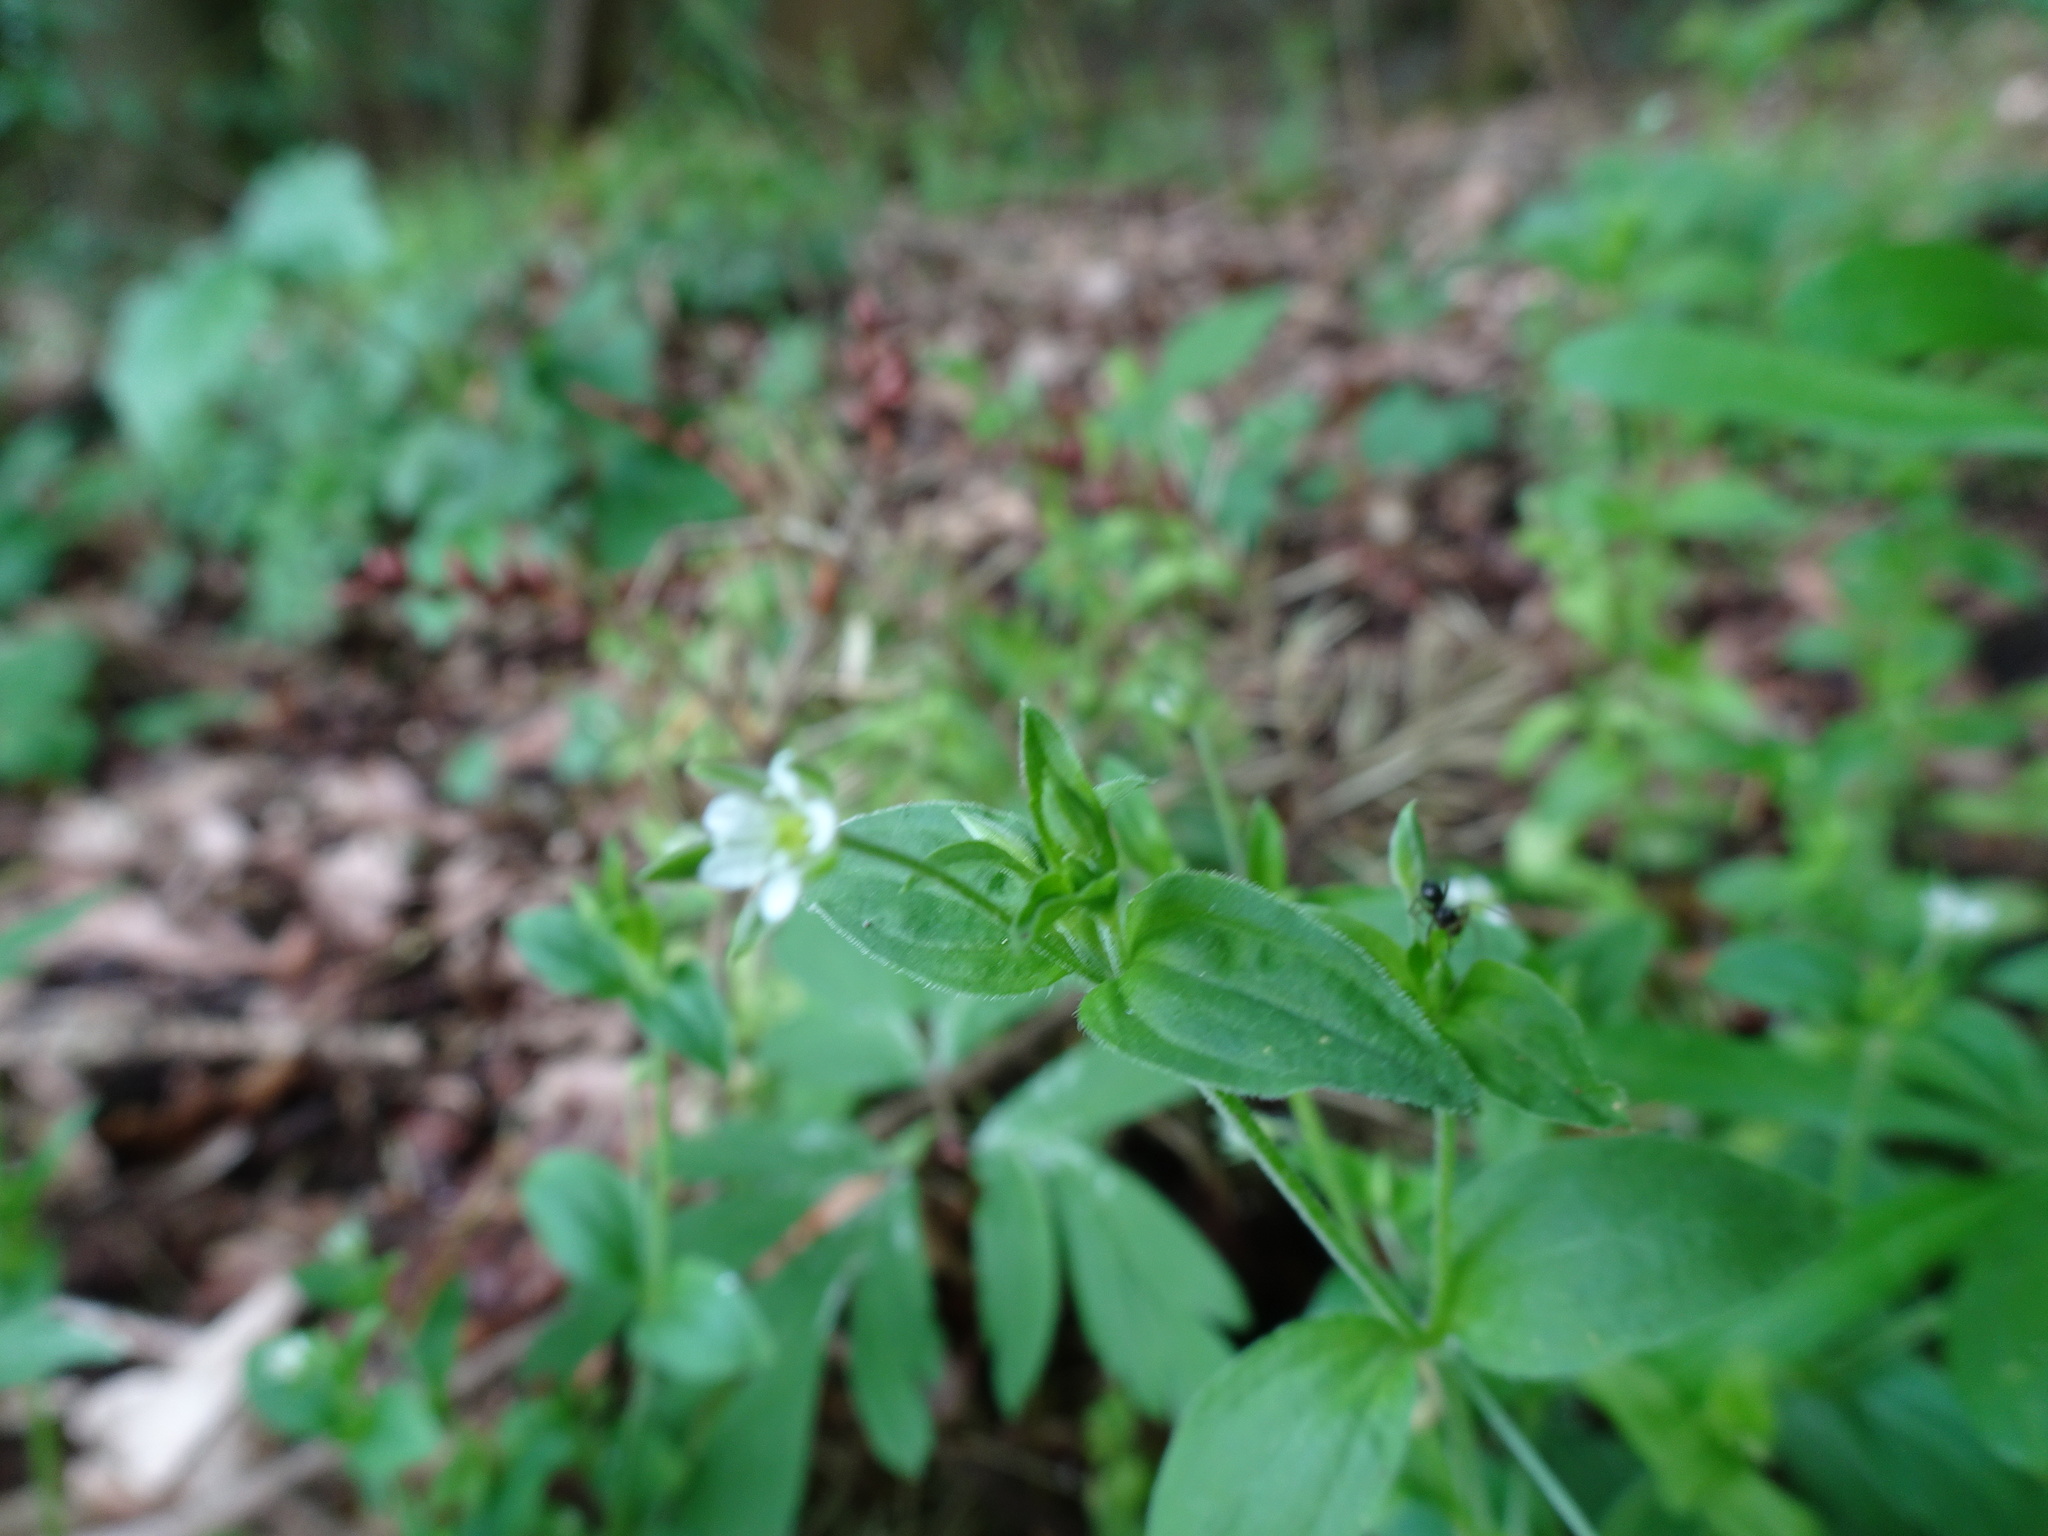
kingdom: Plantae
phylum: Tracheophyta
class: Magnoliopsida
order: Caryophyllales
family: Caryophyllaceae
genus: Moehringia
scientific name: Moehringia trinervia
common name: Three-nerved sandwort
